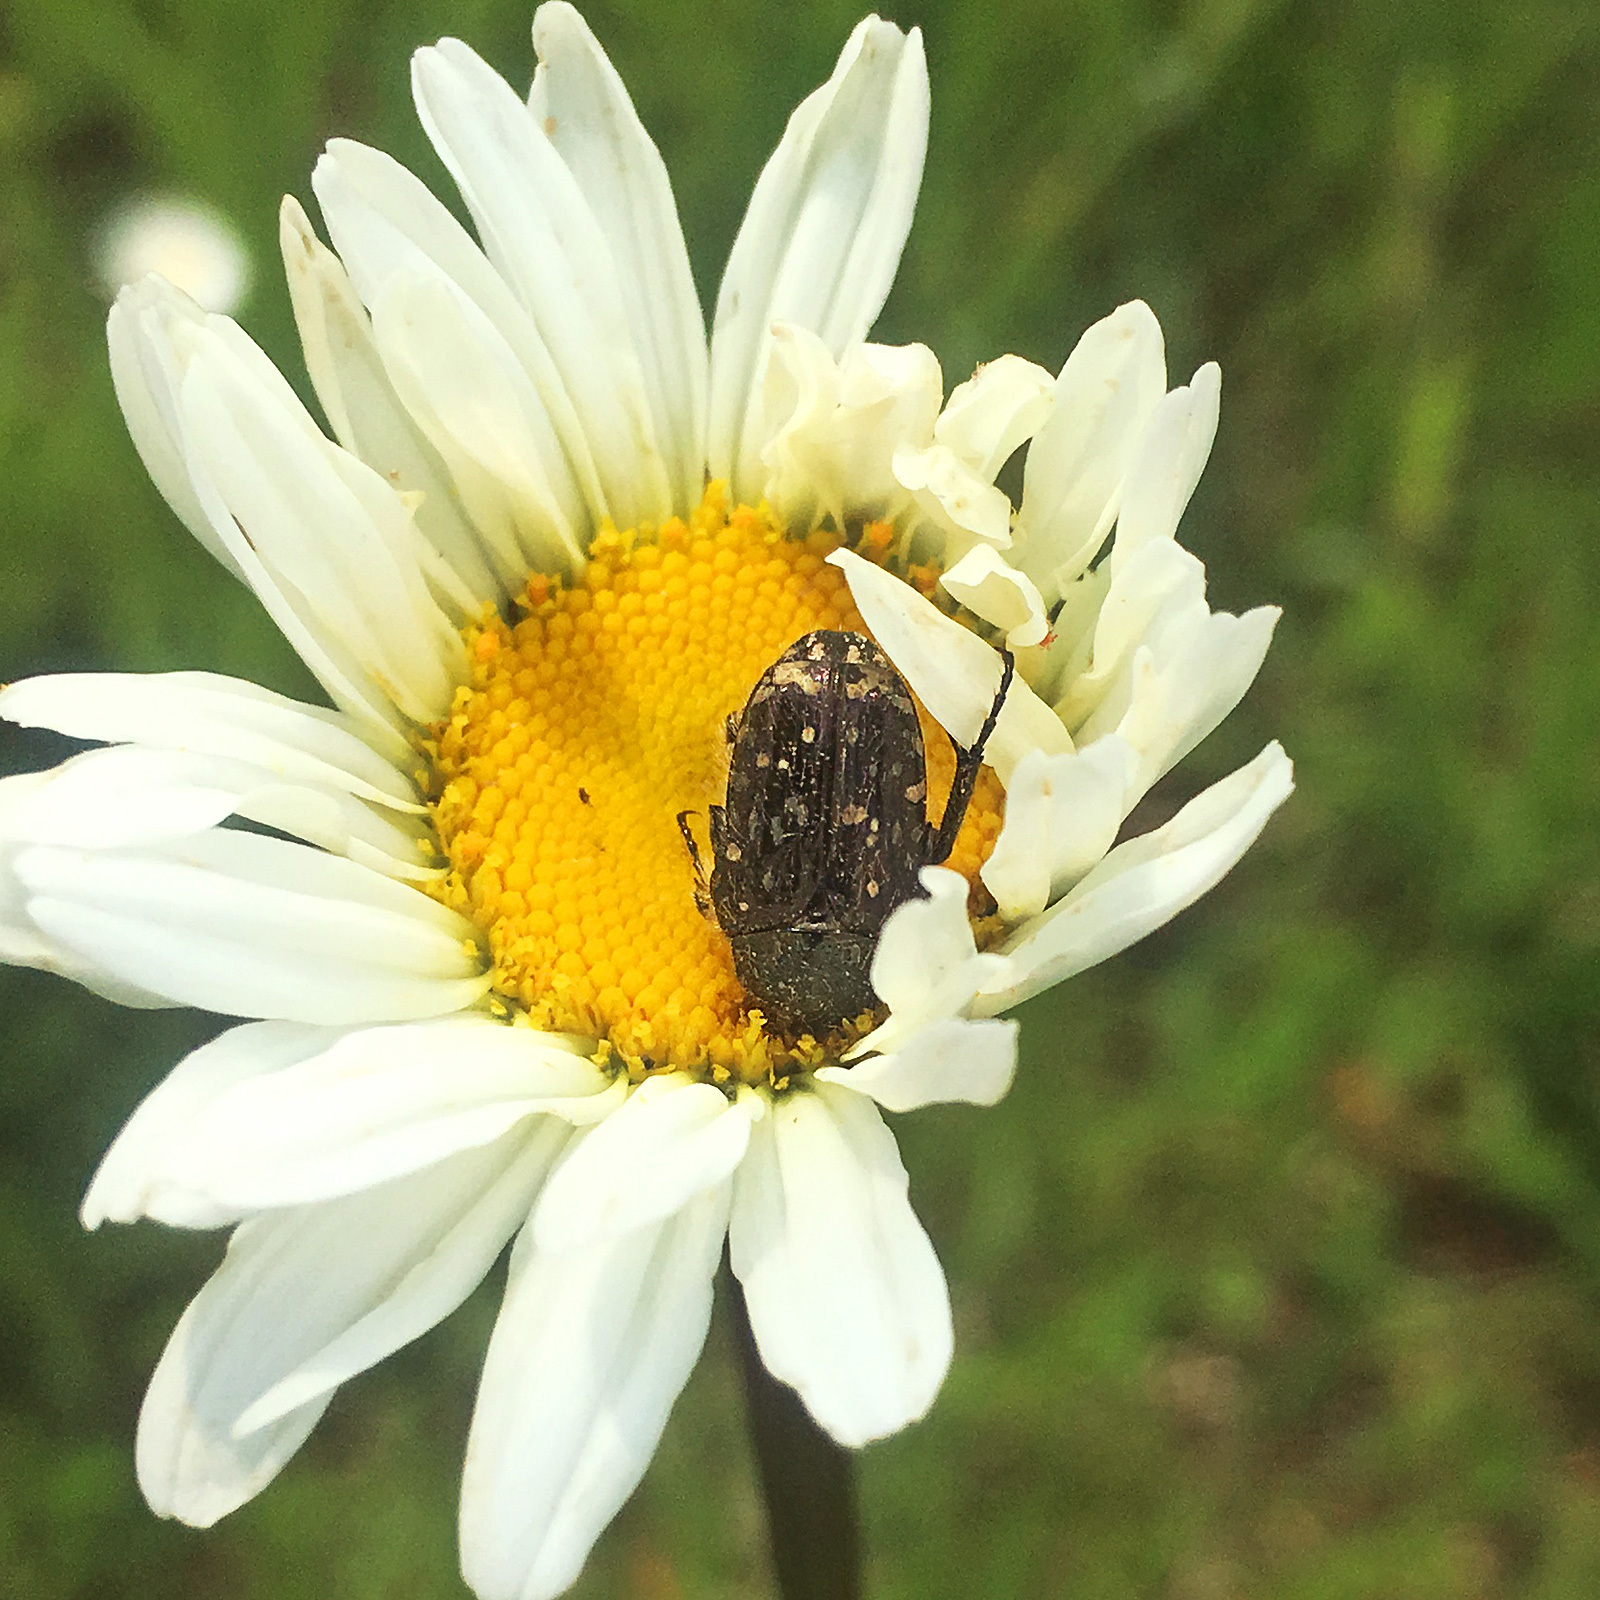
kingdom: Animalia
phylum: Arthropoda
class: Insecta
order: Coleoptera
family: Scarabaeidae
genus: Oxythyrea
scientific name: Oxythyrea funesta
